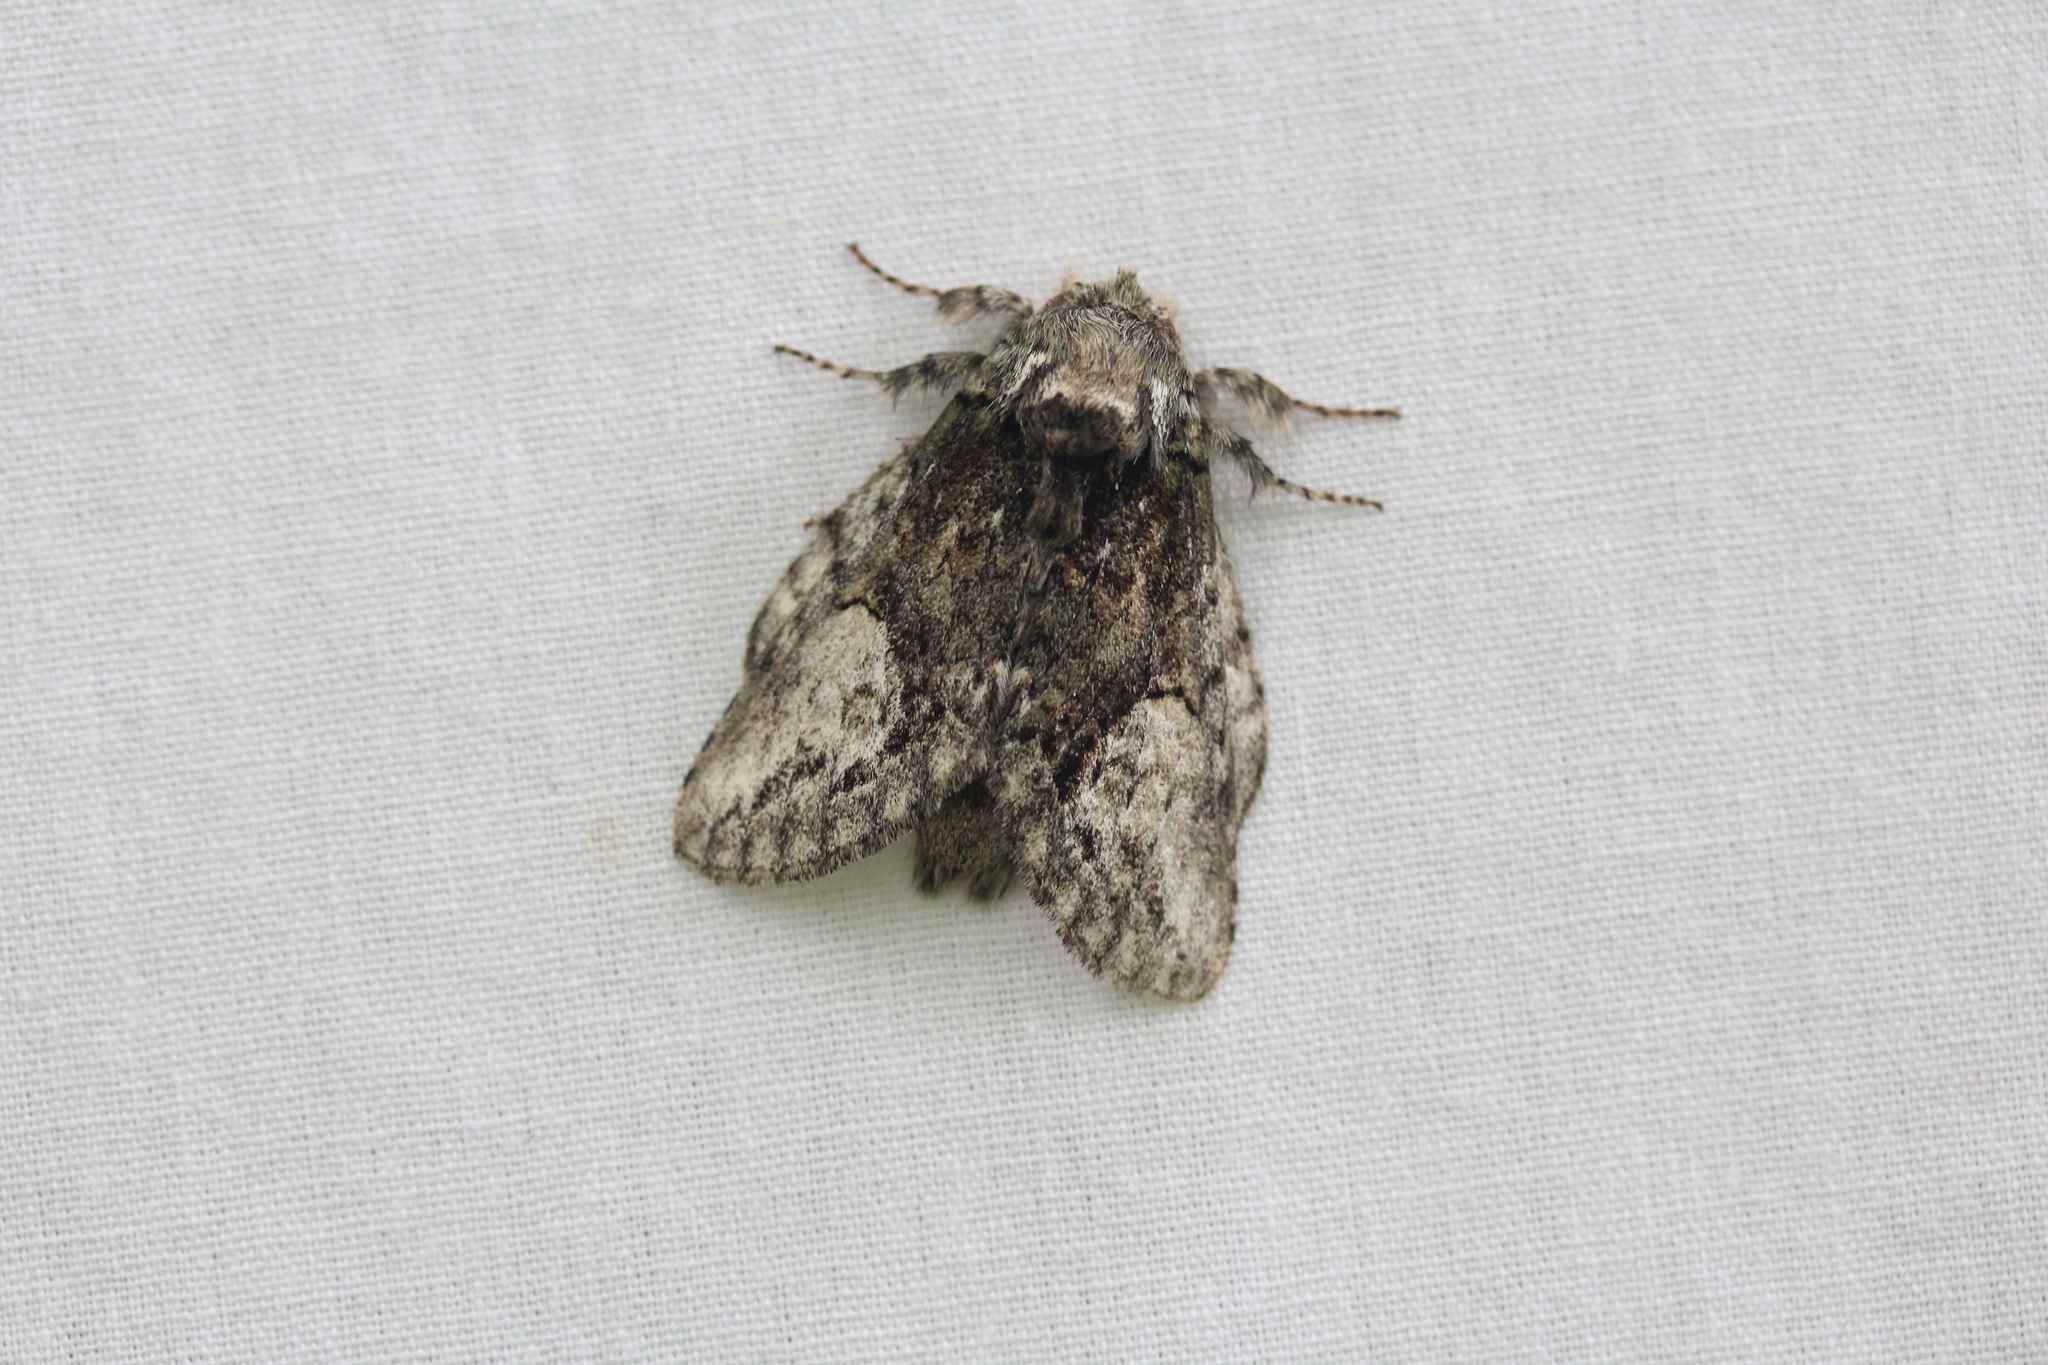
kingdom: Animalia
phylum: Arthropoda
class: Insecta
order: Lepidoptera
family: Notodontidae
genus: Heterocampa
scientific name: Heterocampa
